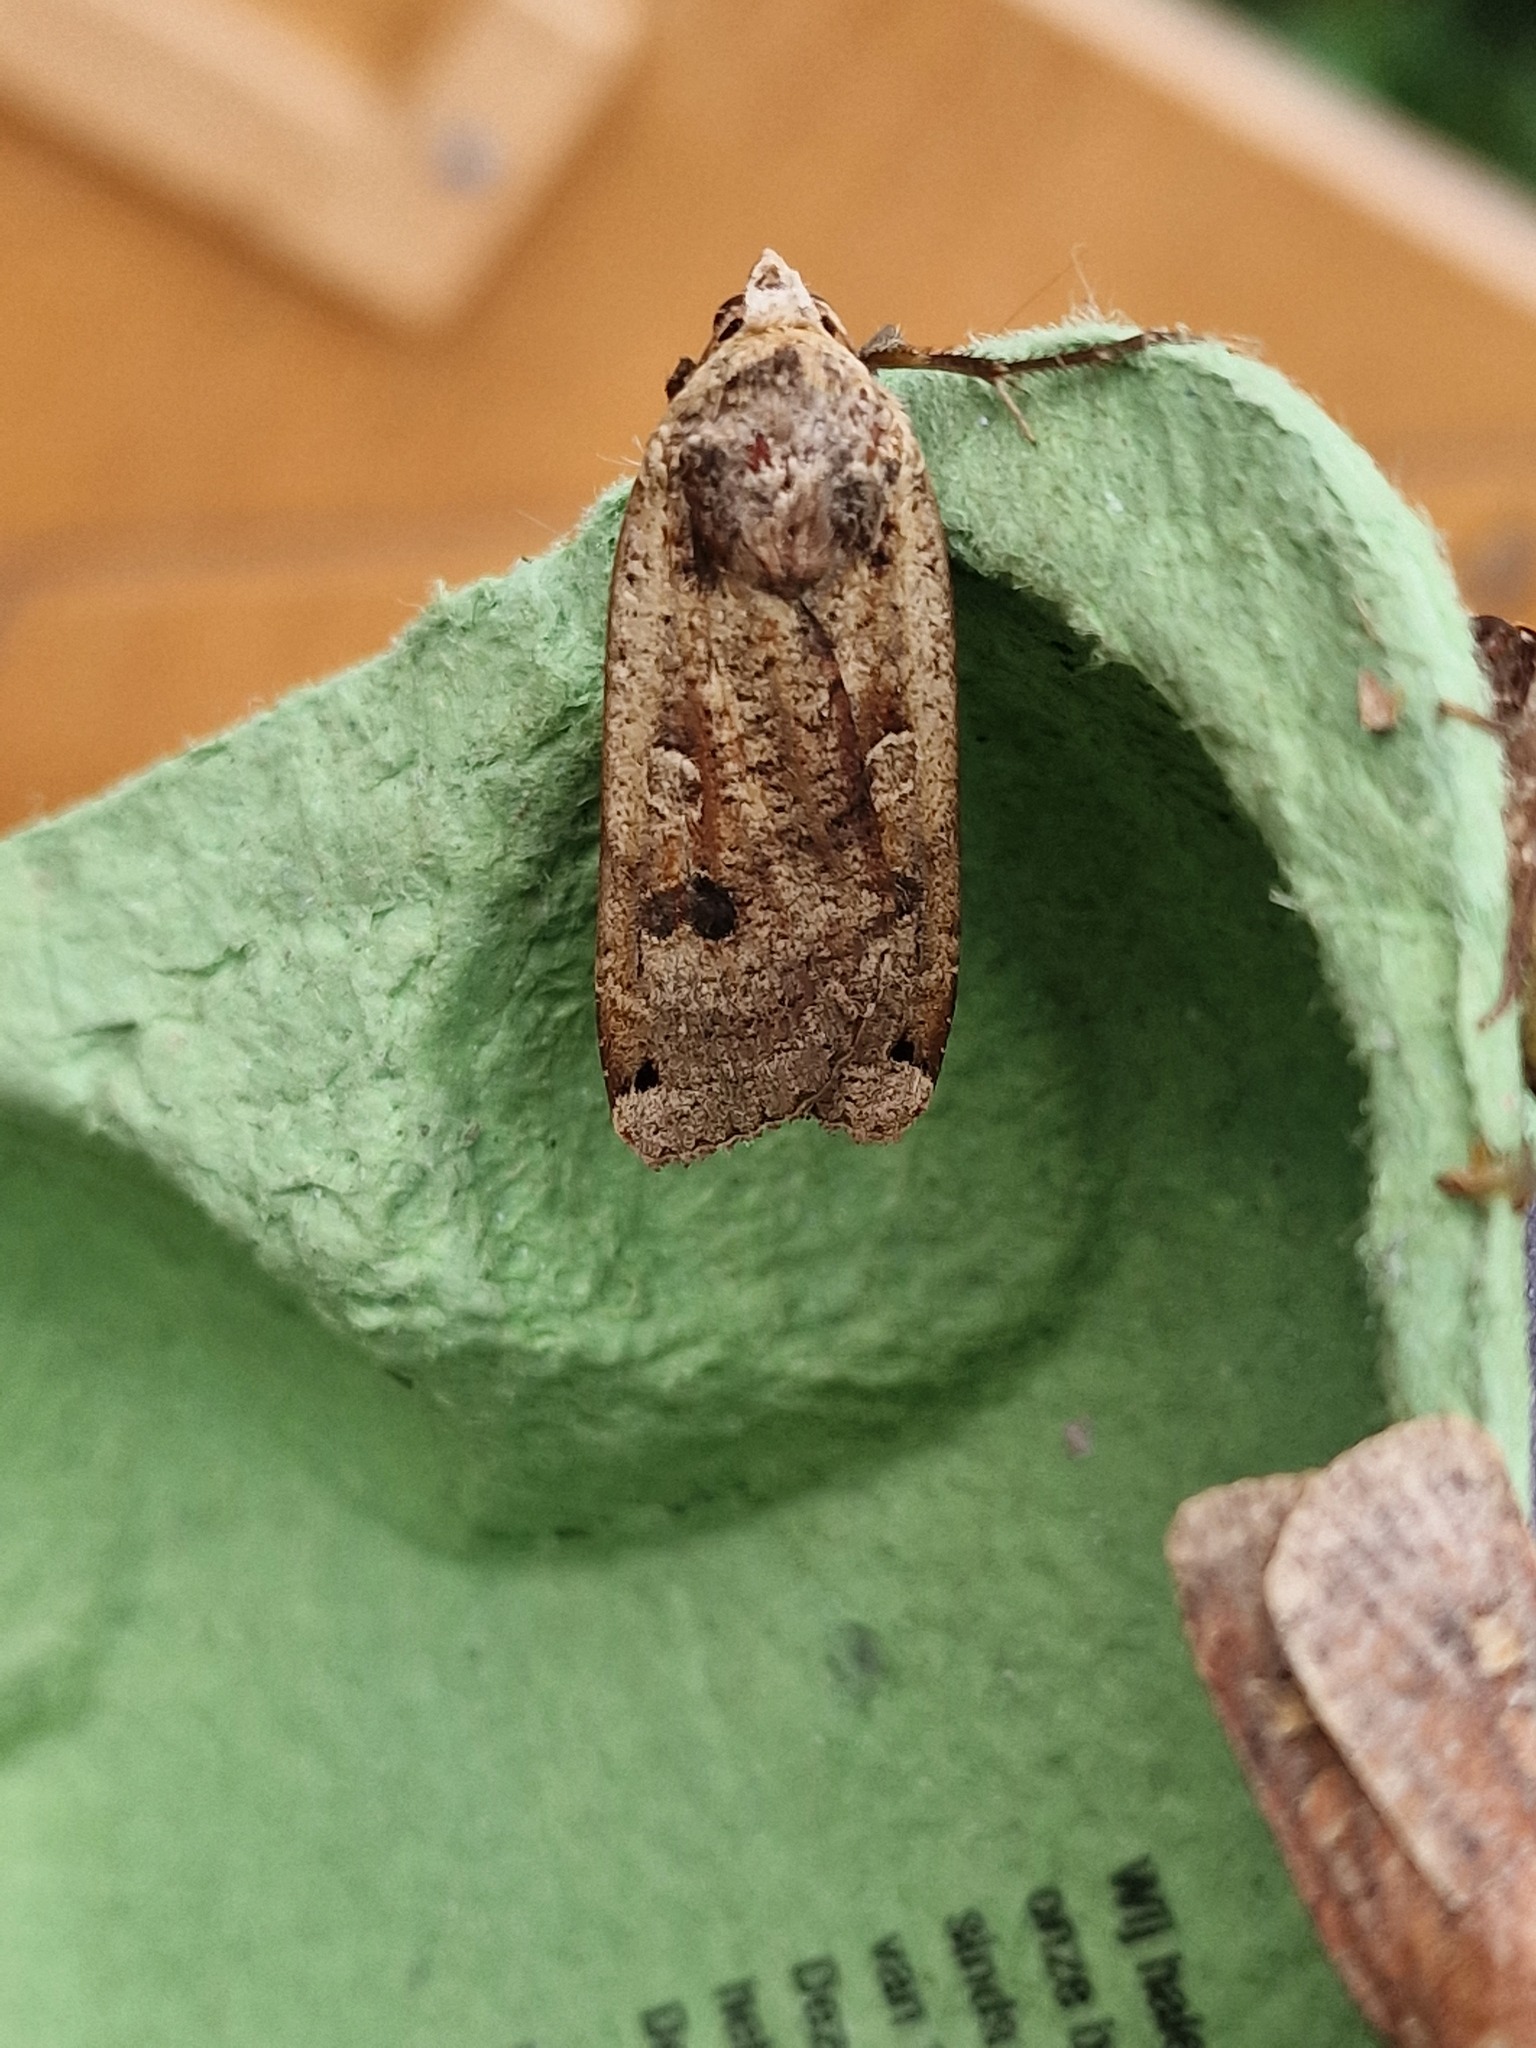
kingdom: Animalia
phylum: Arthropoda
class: Insecta
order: Lepidoptera
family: Noctuidae
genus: Noctua
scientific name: Noctua pronuba
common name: Large yellow underwing
